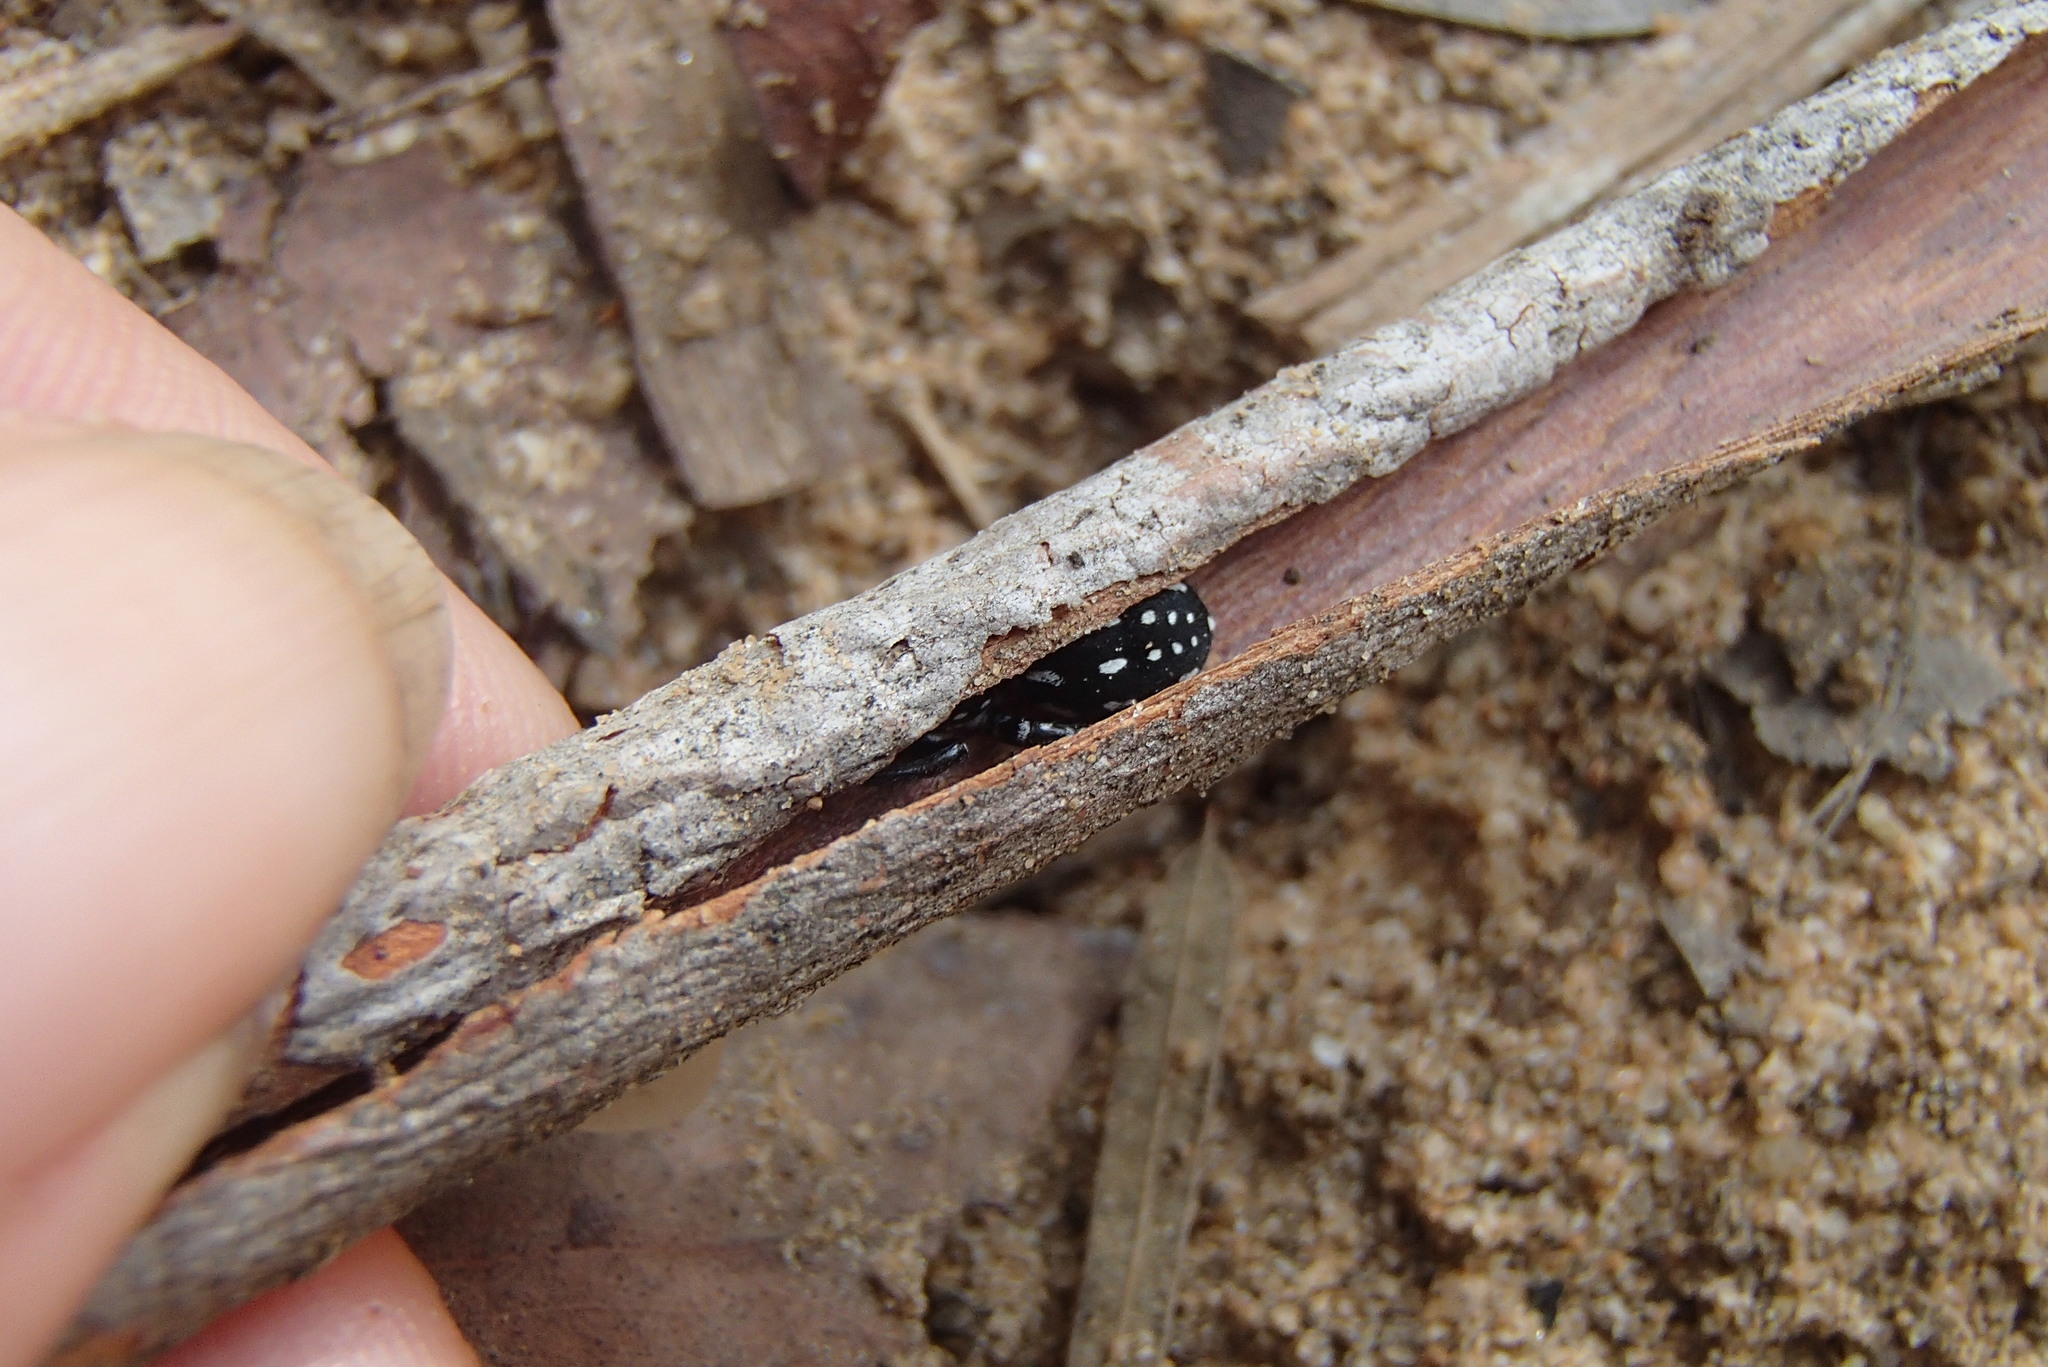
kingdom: Animalia
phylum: Arthropoda
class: Arachnida
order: Araneae
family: Corinnidae
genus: Nyssus
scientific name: Nyssus albopunctatus
